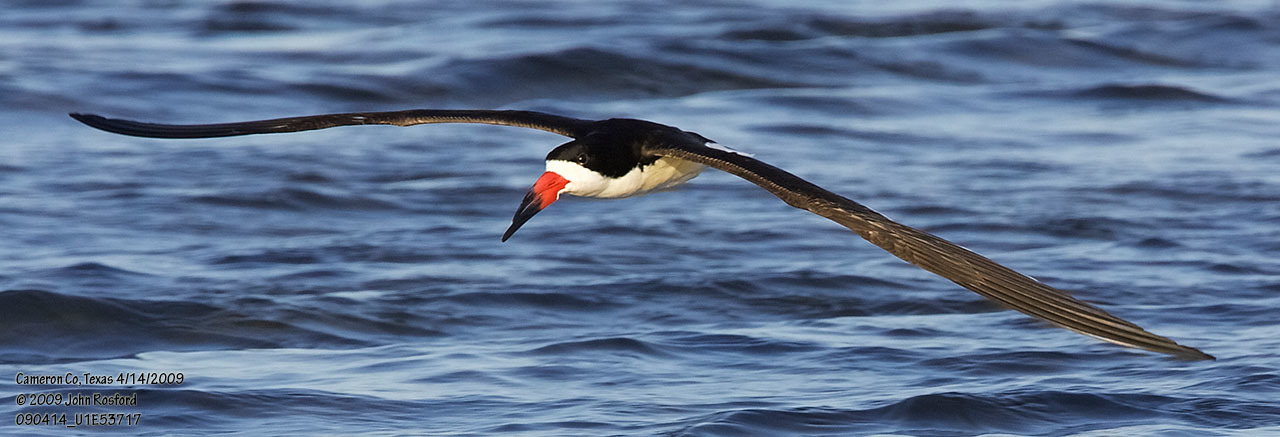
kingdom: Animalia
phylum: Chordata
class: Aves
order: Charadriiformes
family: Laridae
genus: Rynchops
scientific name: Rynchops niger
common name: Black skimmer
